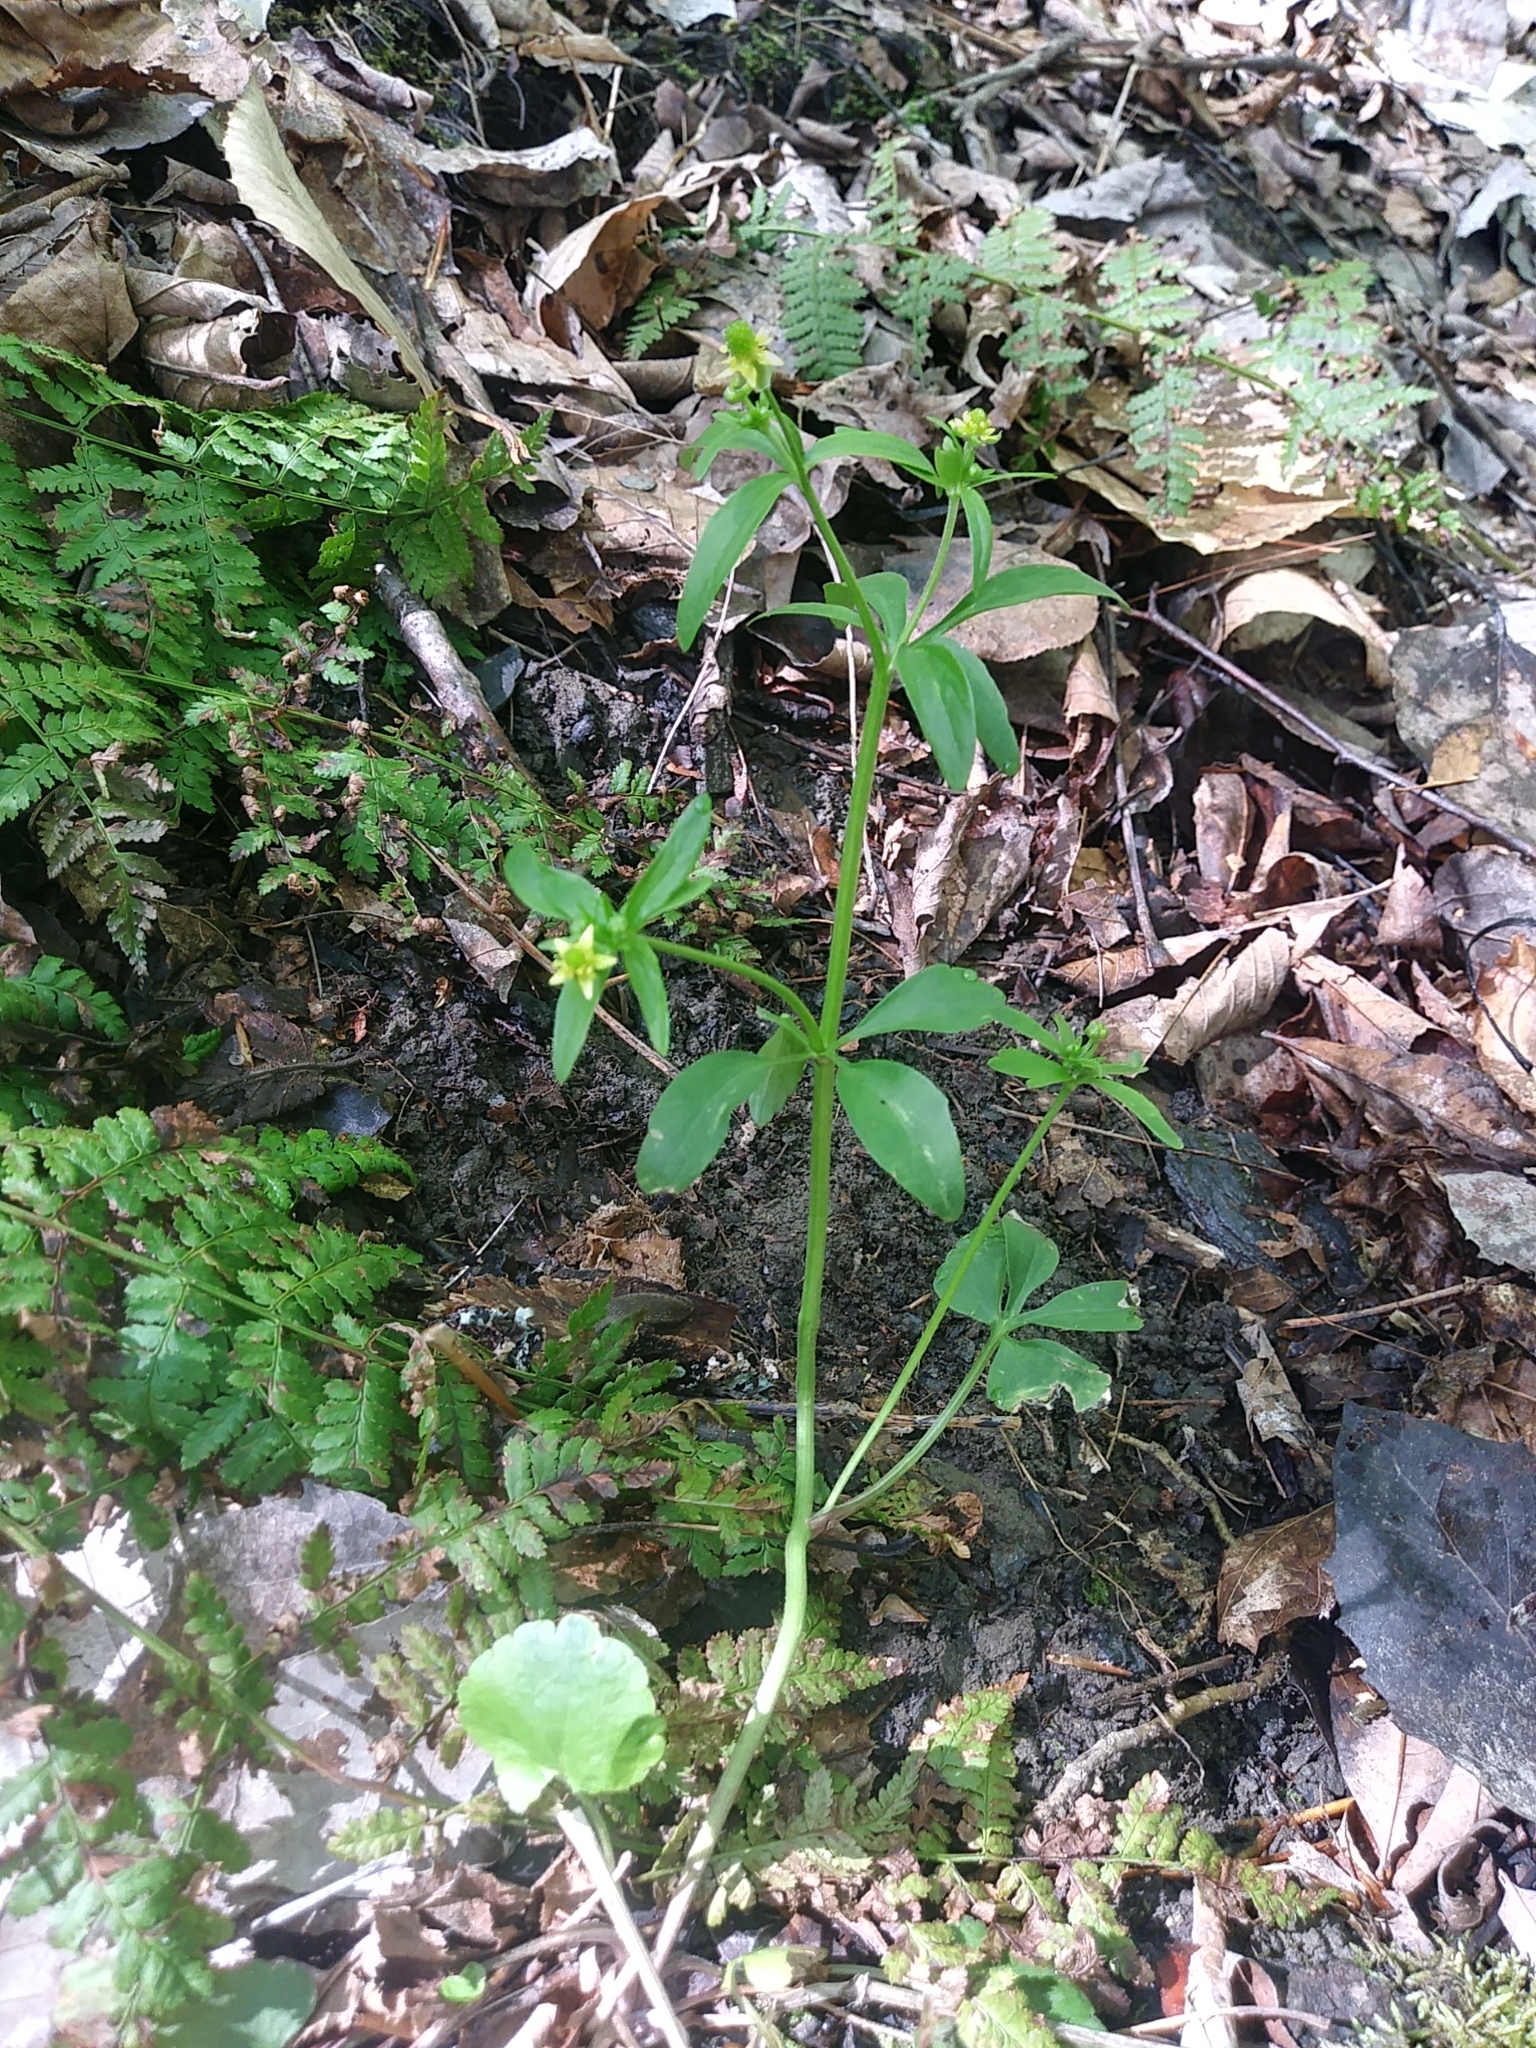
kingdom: Plantae
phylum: Tracheophyta
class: Magnoliopsida
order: Ranunculales
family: Ranunculaceae
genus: Ranunculus
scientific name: Ranunculus abortivus
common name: Early wood buttercup
